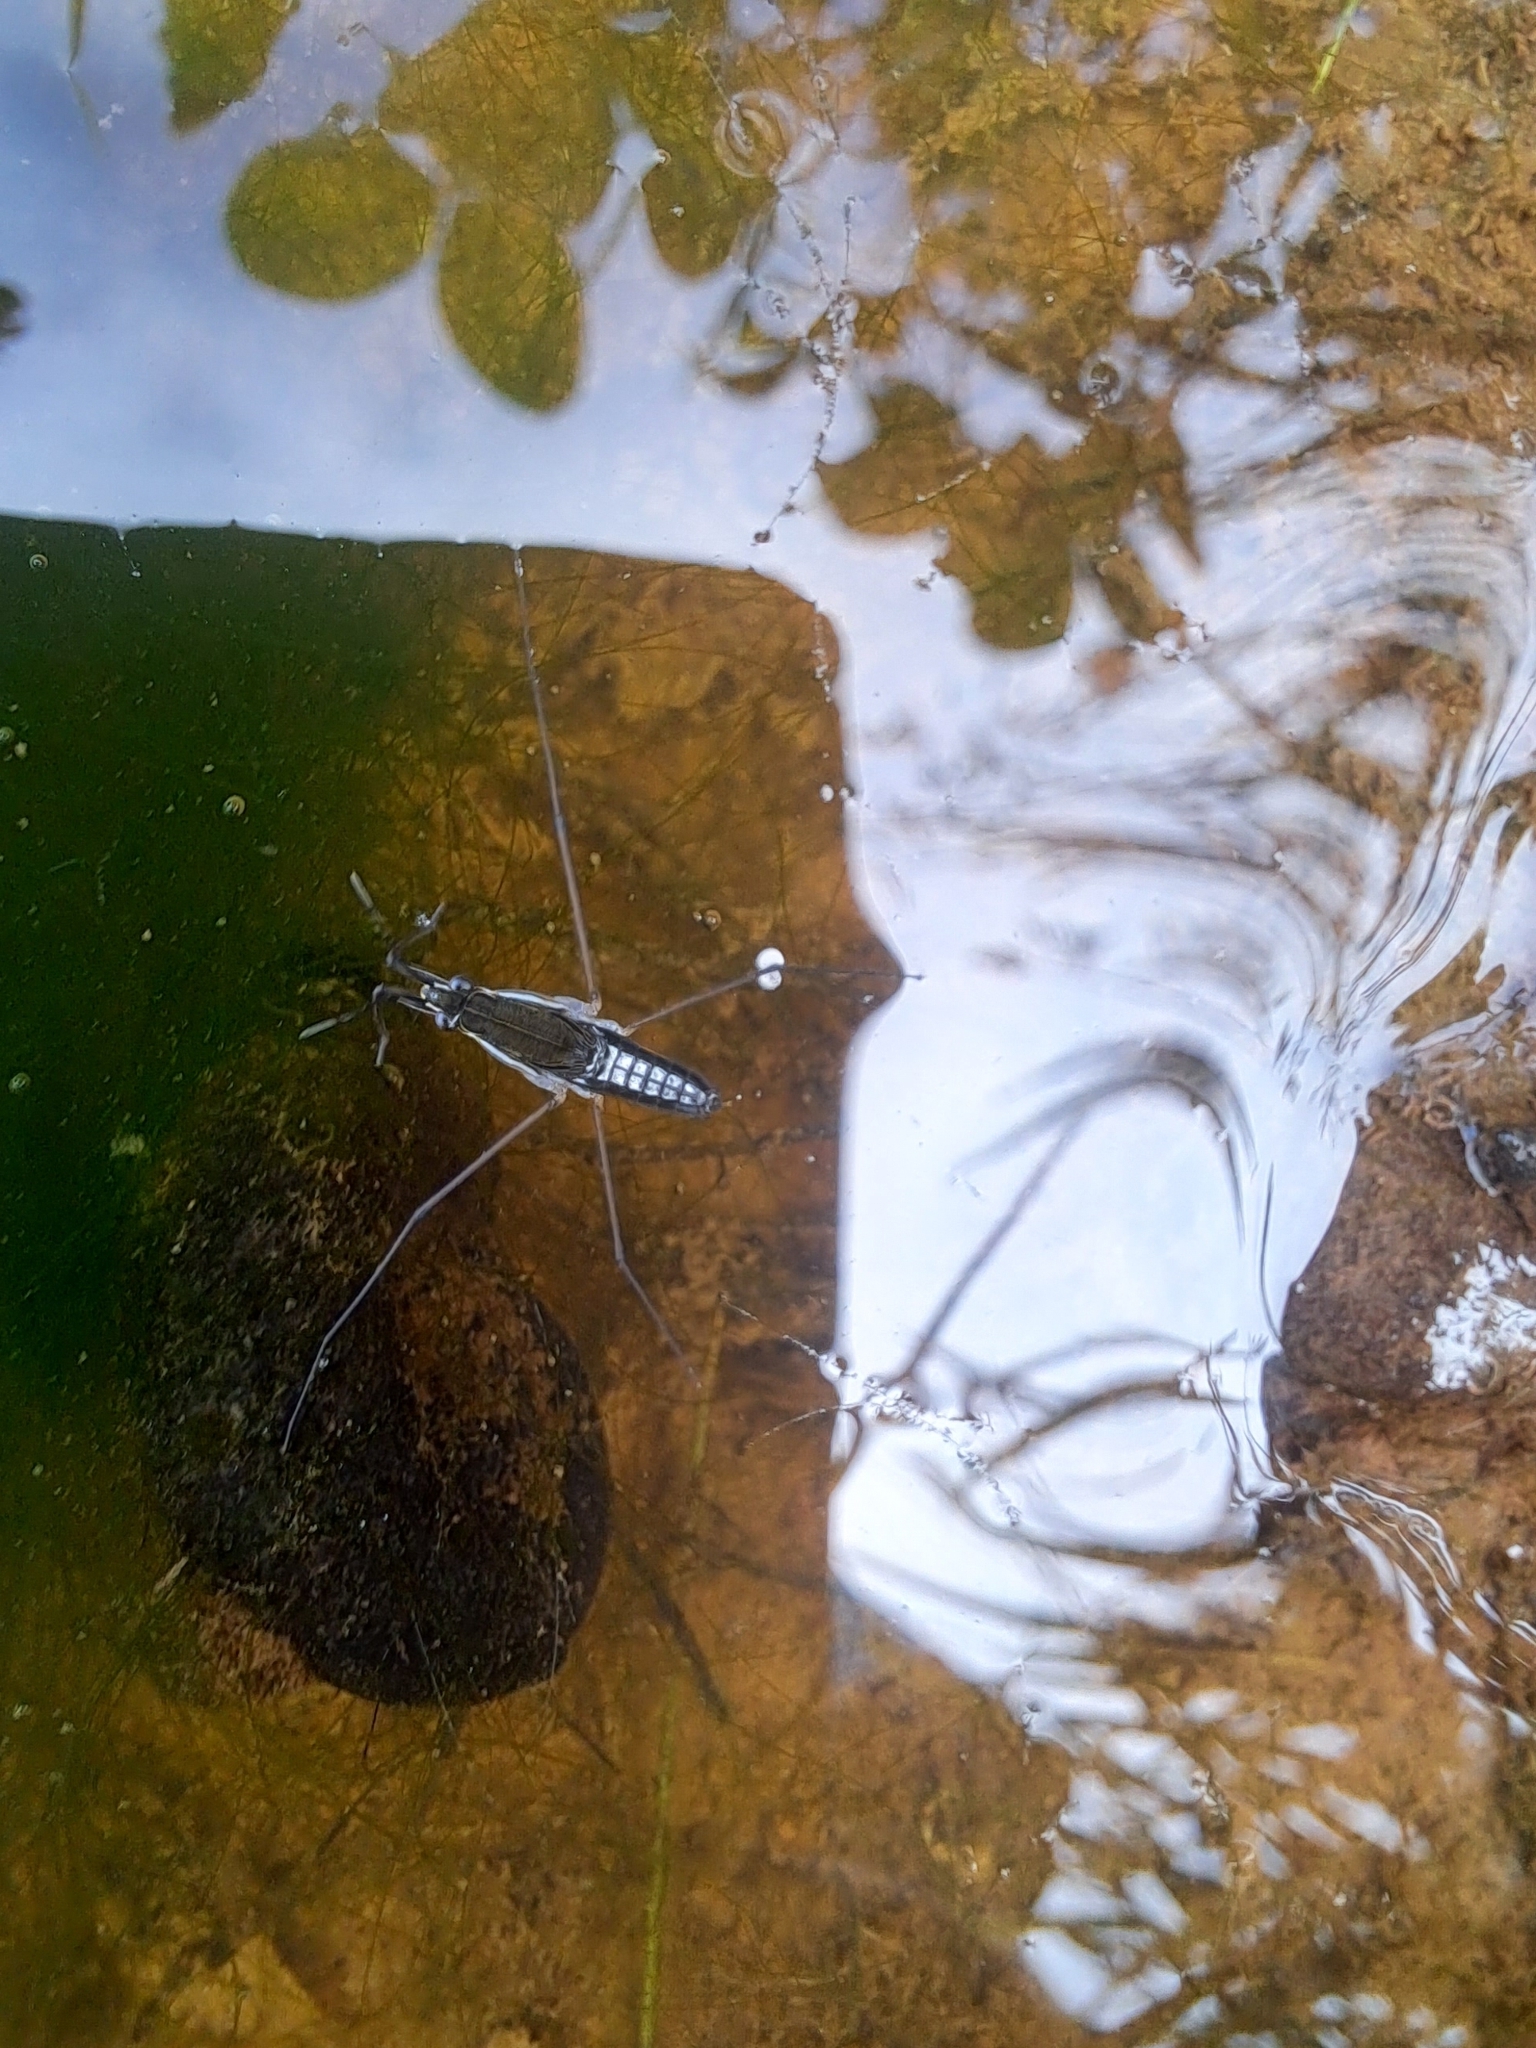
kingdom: Animalia
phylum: Arthropoda
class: Insecta
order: Hemiptera
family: Gerridae
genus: Gerris
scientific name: Gerris
